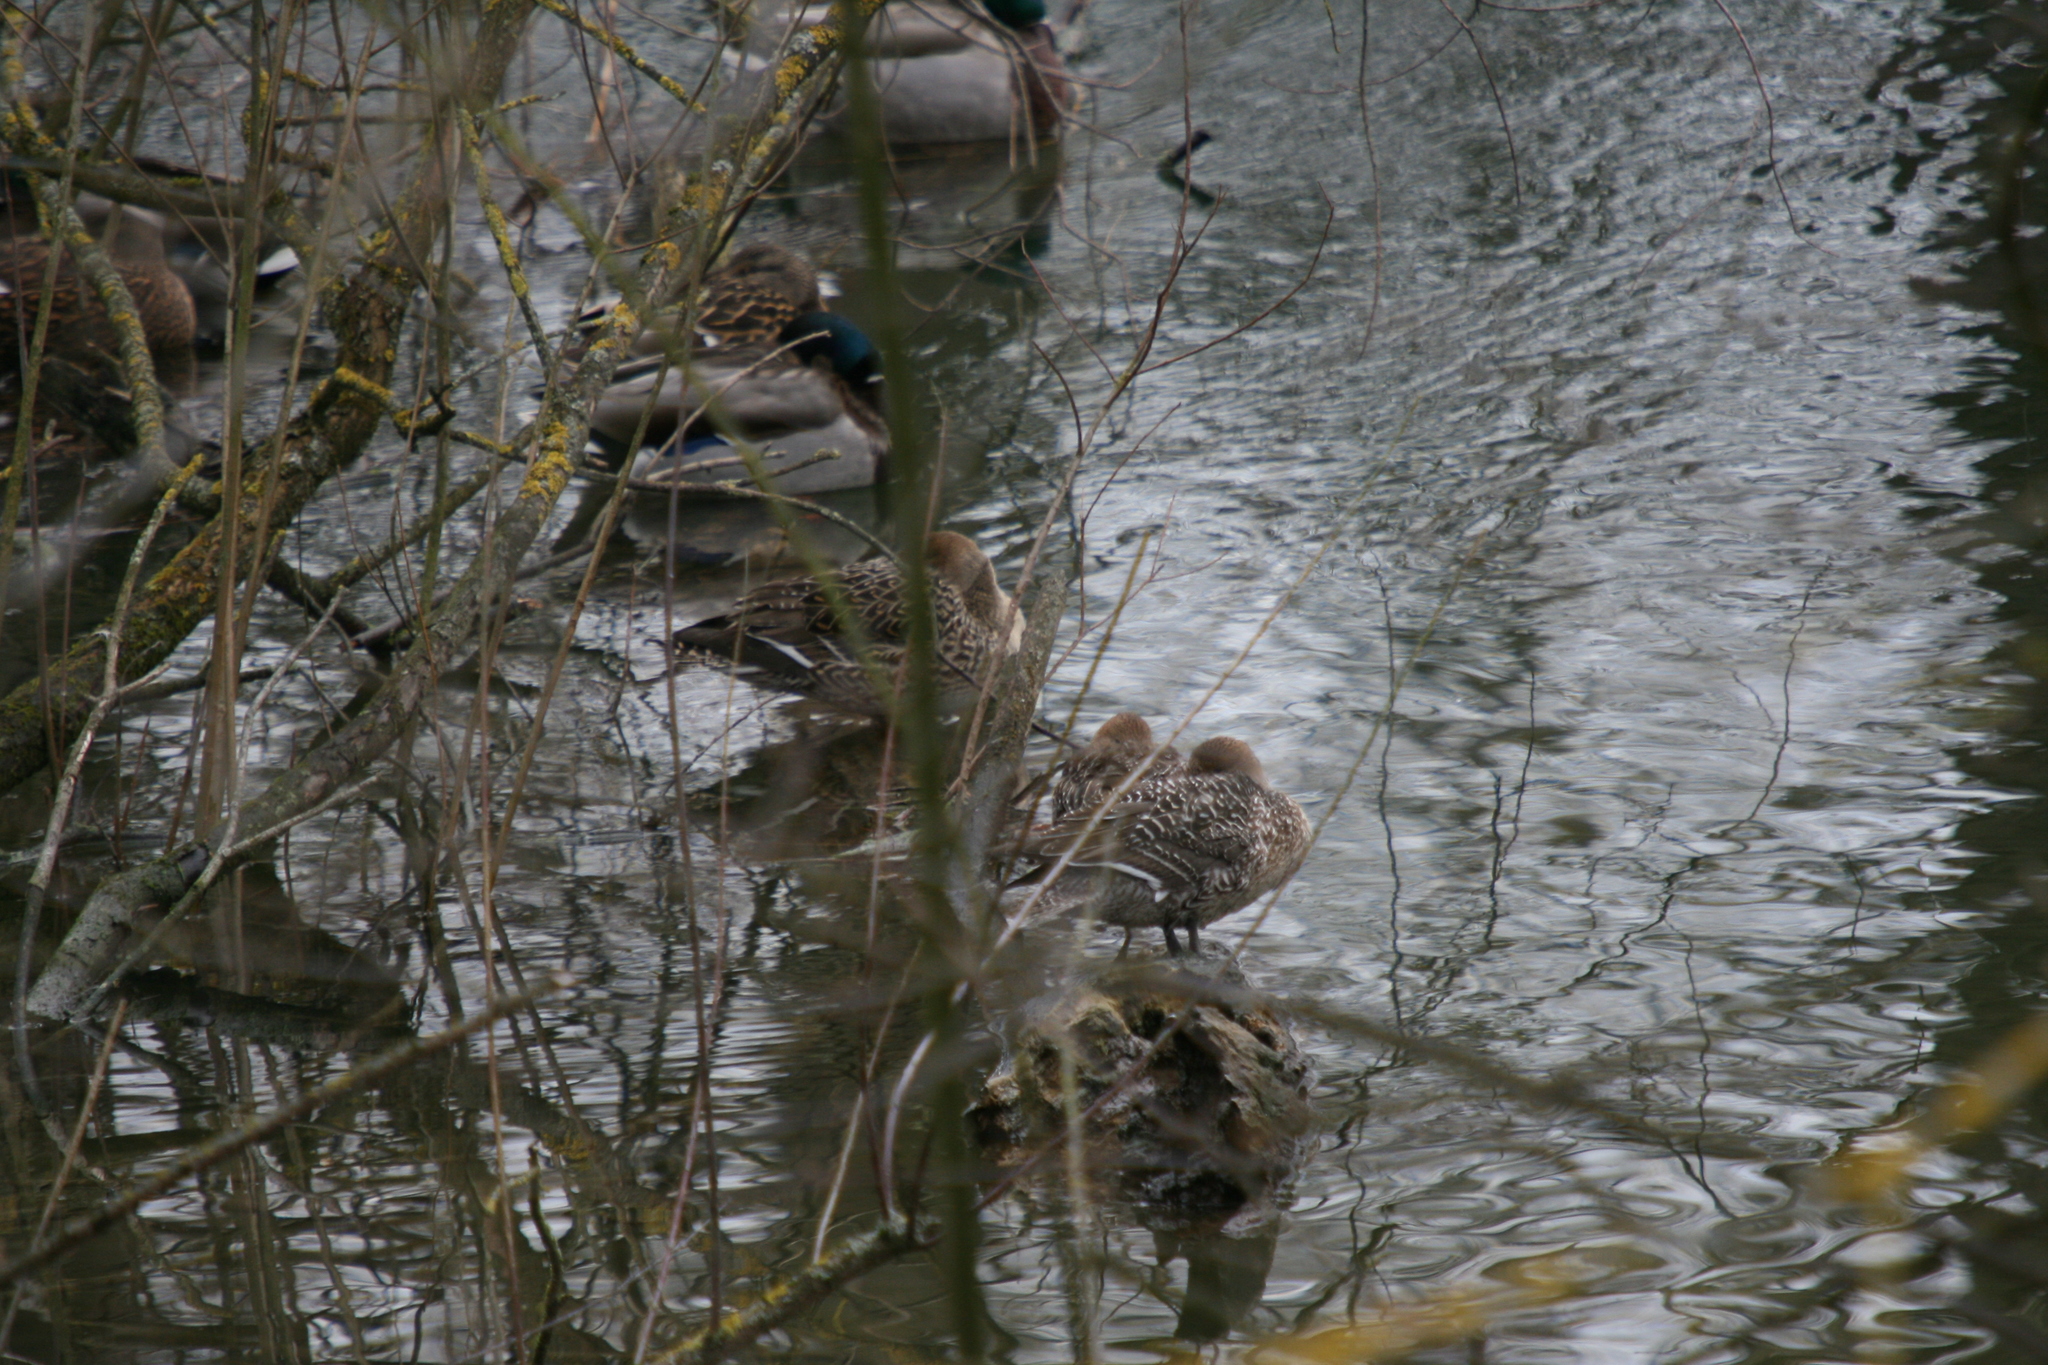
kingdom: Animalia
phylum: Chordata
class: Aves
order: Anseriformes
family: Anatidae
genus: Anas
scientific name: Anas acuta
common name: Northern pintail
